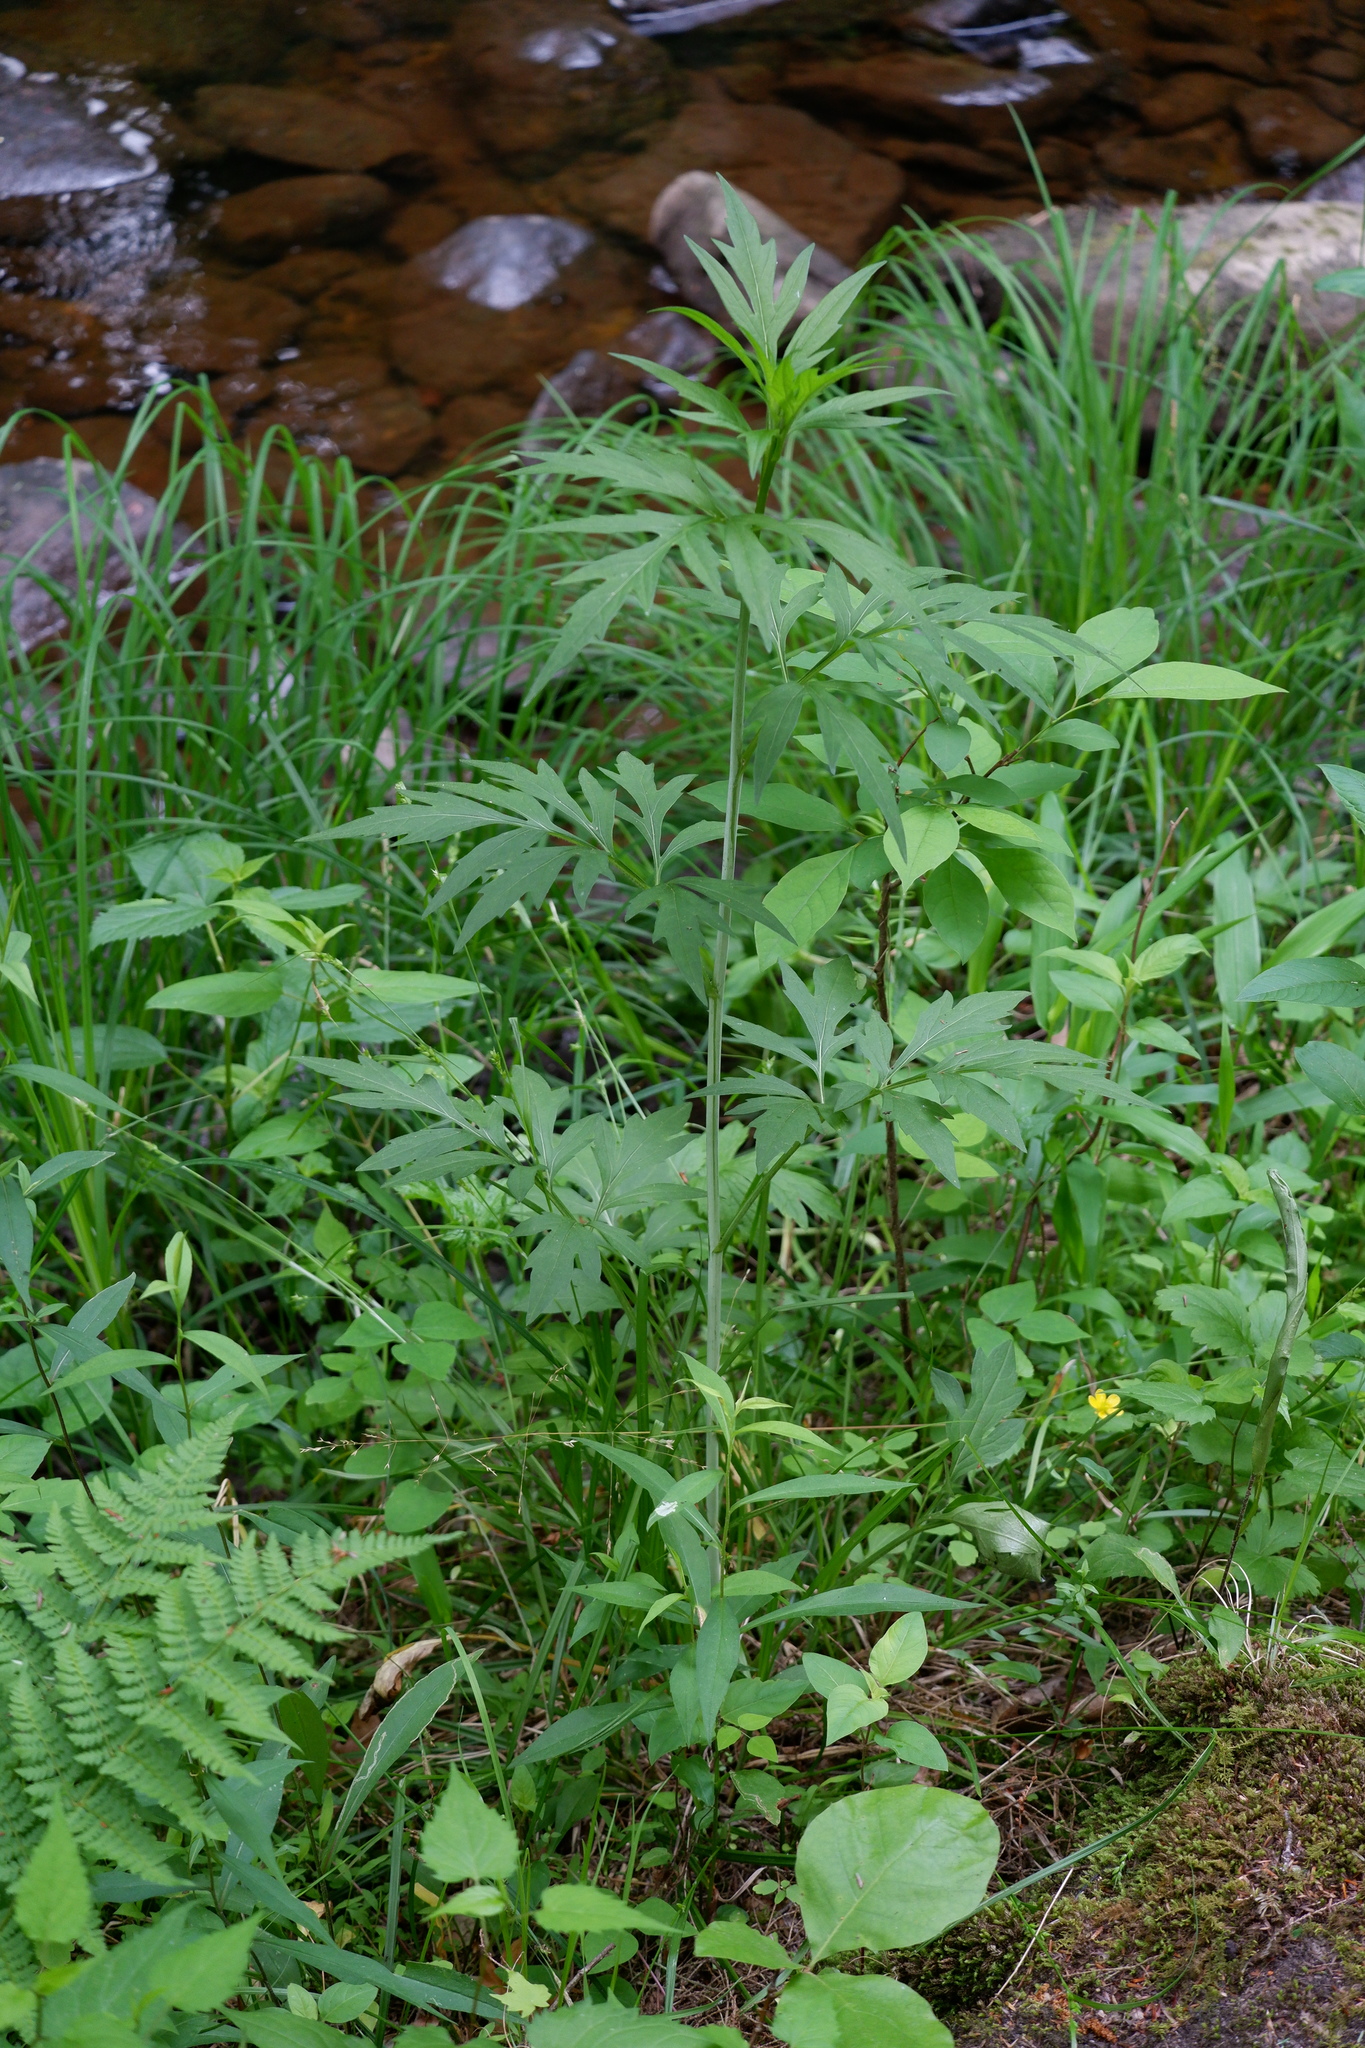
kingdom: Plantae
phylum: Tracheophyta
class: Magnoliopsida
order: Asterales
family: Asteraceae
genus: Rudbeckia
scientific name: Rudbeckia laciniata
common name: Coneflower
